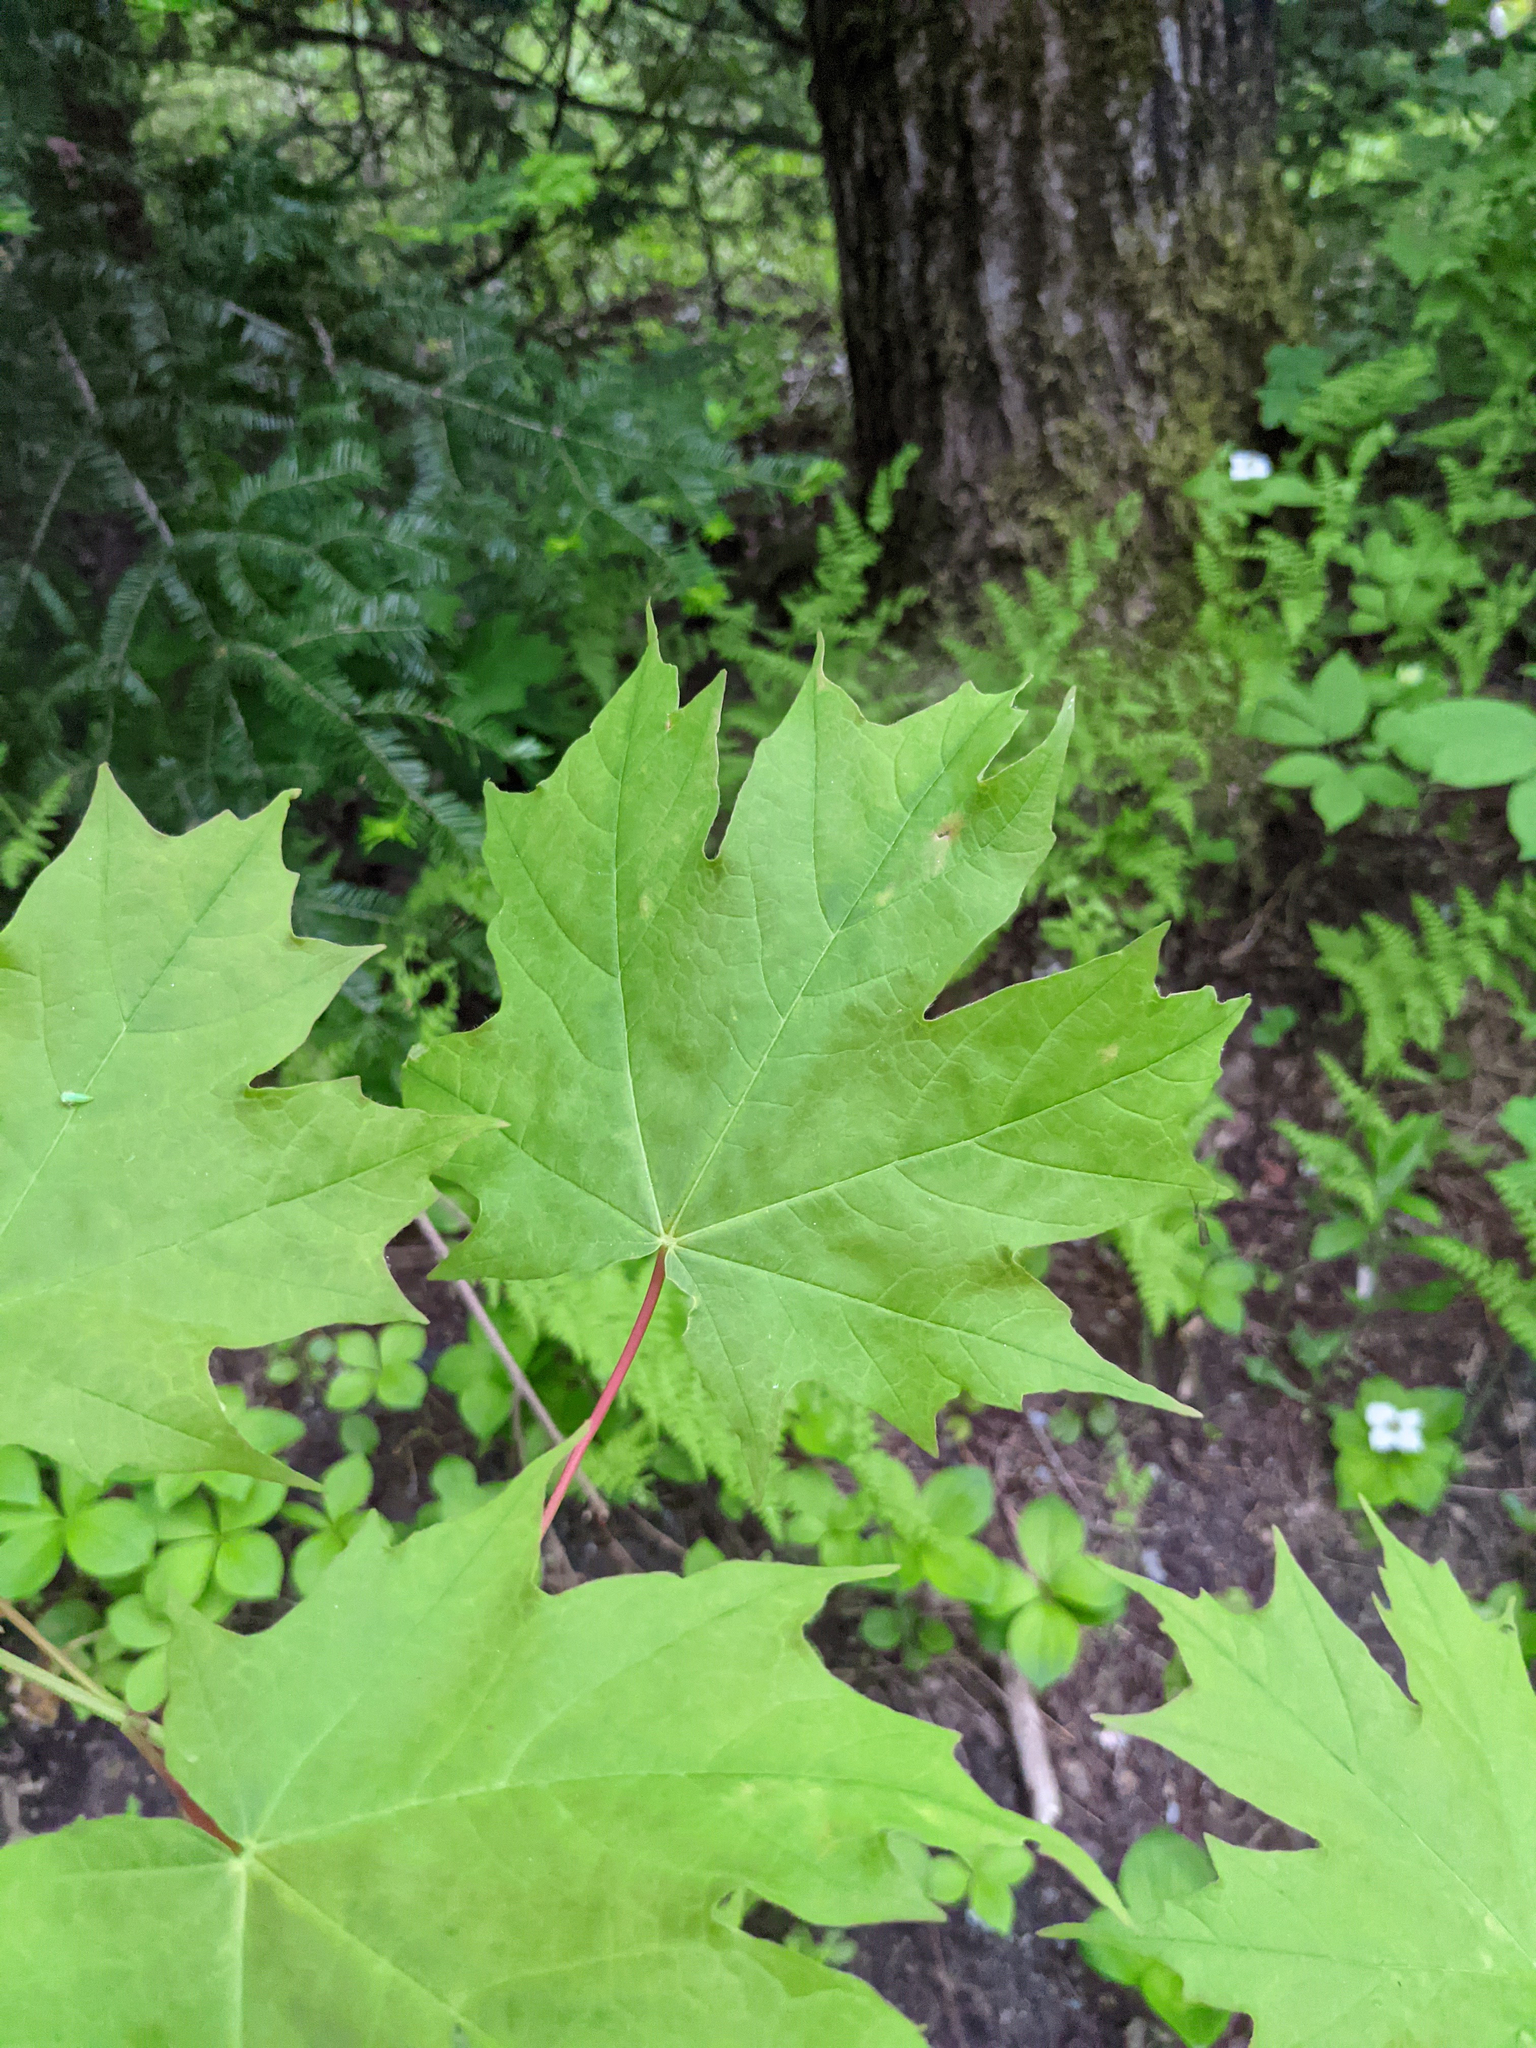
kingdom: Plantae
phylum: Tracheophyta
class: Magnoliopsida
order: Sapindales
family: Sapindaceae
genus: Acer
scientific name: Acer saccharum
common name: Sugar maple
